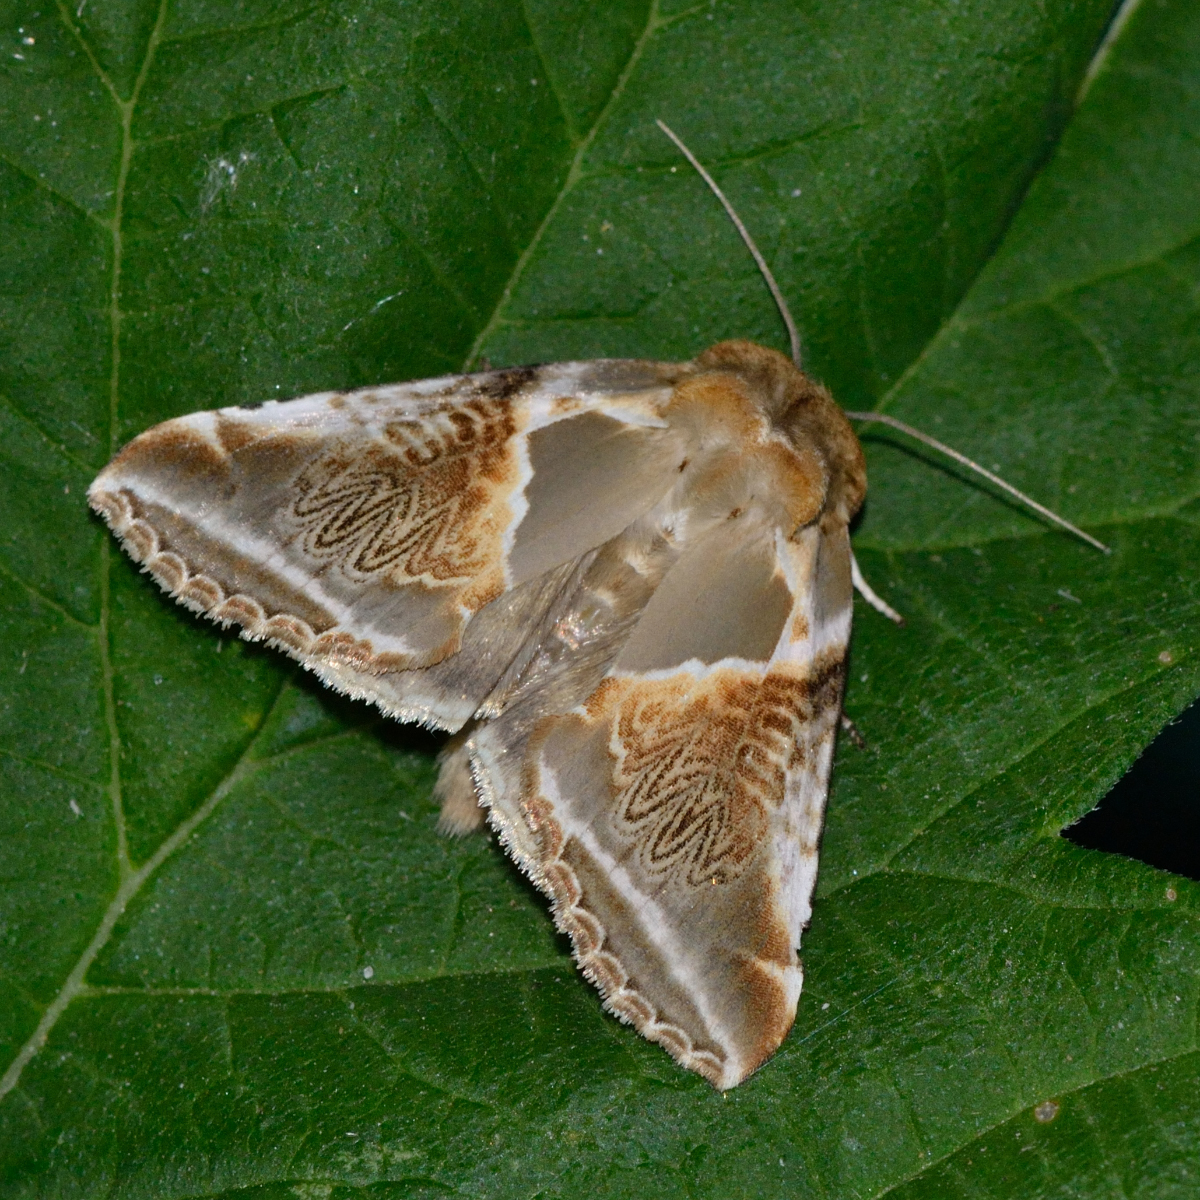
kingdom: Animalia
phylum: Arthropoda
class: Insecta
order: Lepidoptera
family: Drepanidae
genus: Habrosyne
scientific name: Habrosyne pyritoides
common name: Buff arches
